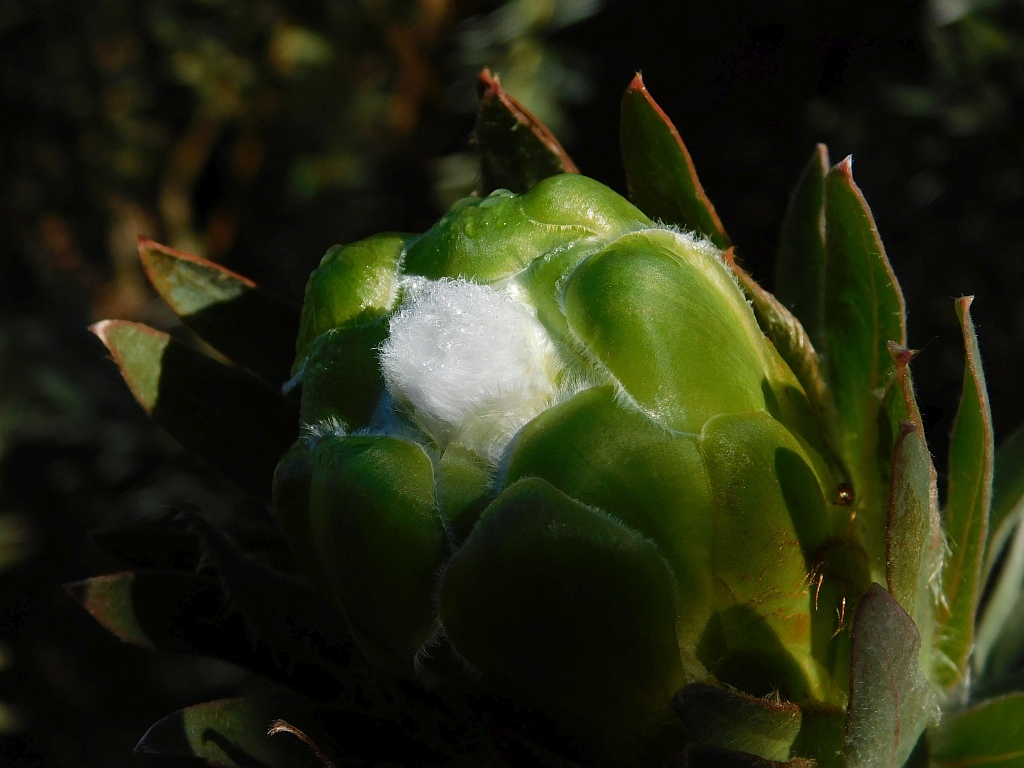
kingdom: Plantae
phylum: Tracheophyta
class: Magnoliopsida
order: Proteales
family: Proteaceae
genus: Protea
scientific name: Protea coronata
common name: Green sugarbush
